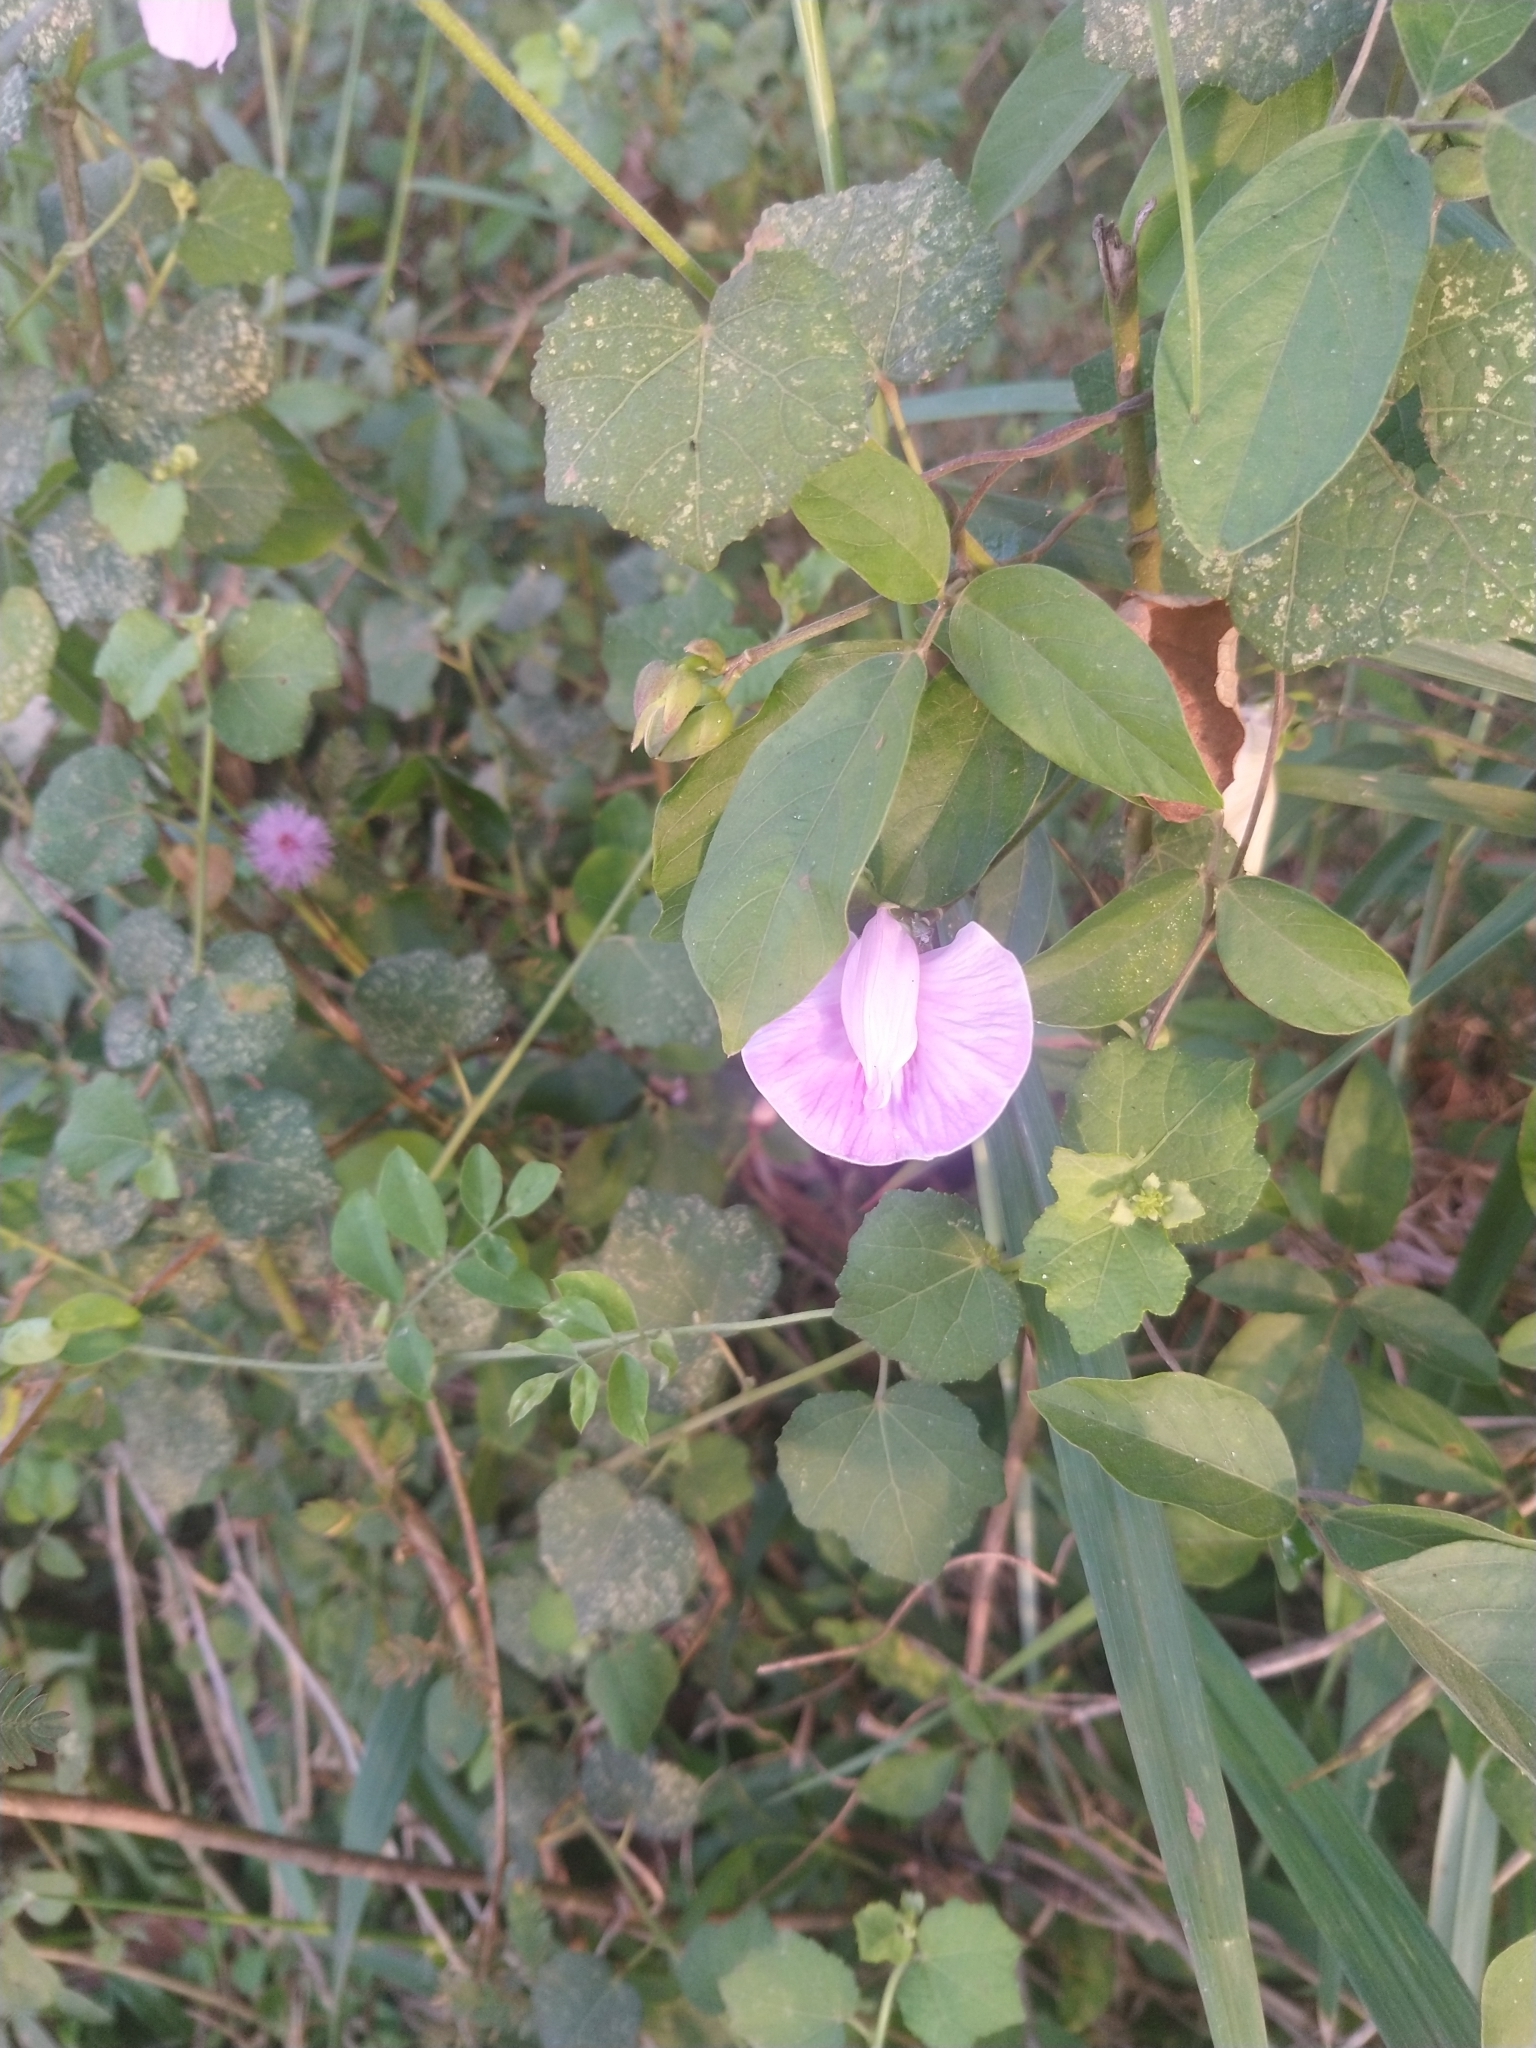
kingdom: Plantae
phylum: Tracheophyta
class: Magnoliopsida
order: Fabales
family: Fabaceae
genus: Centrosema
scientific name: Centrosema virginianum
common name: Butterfly-pea
